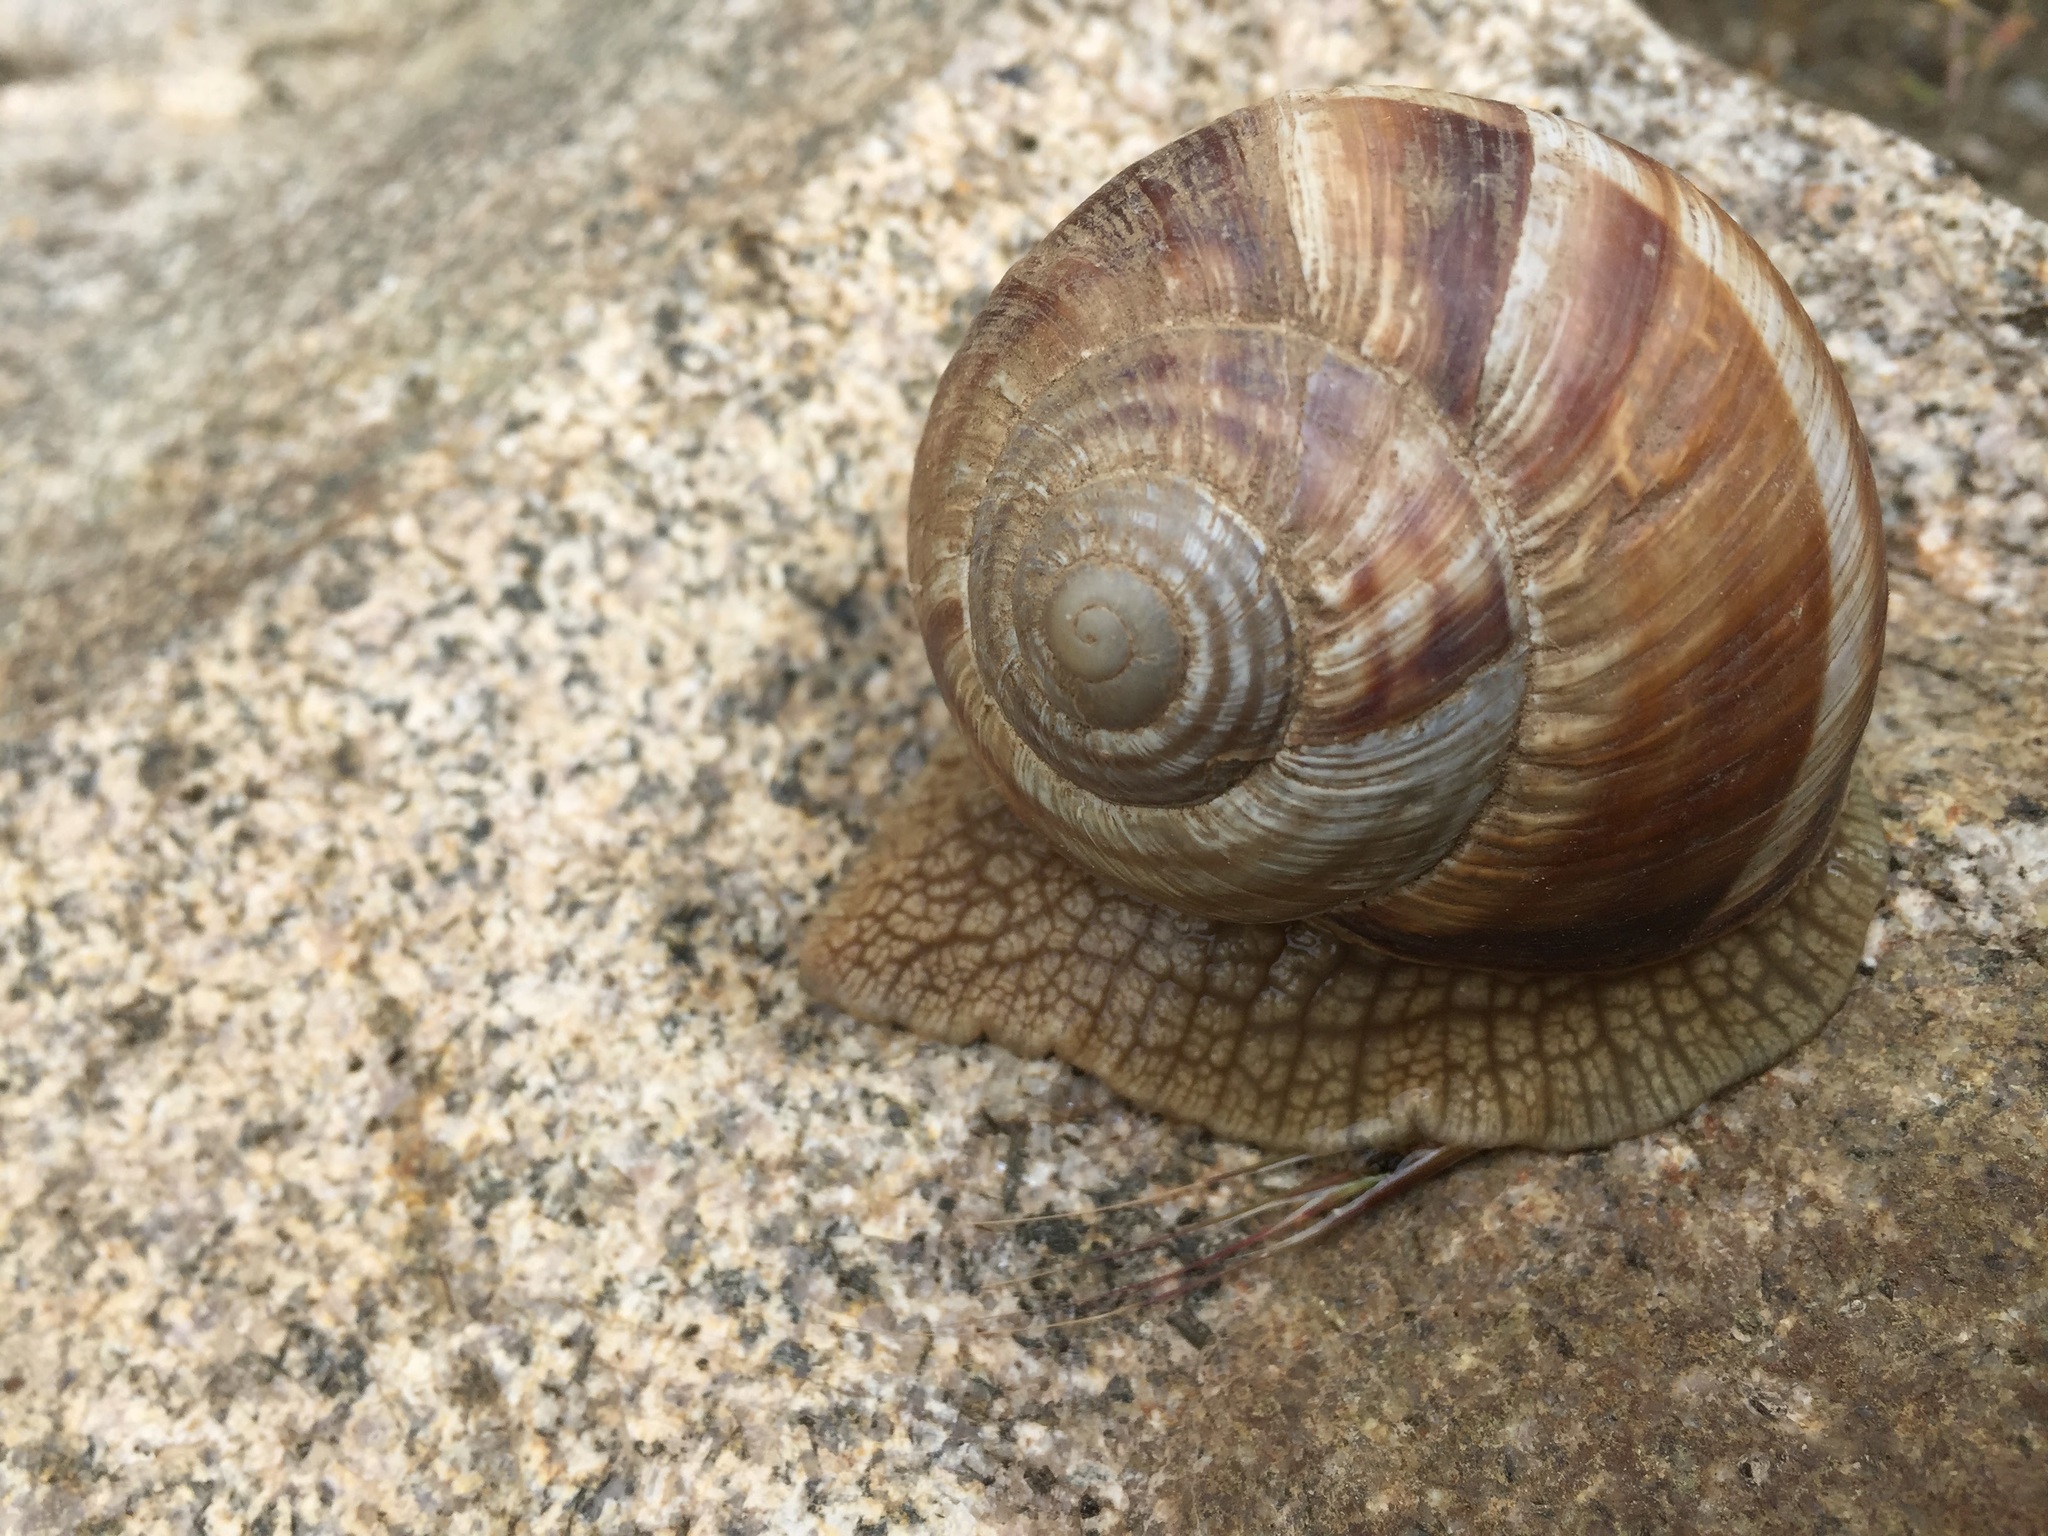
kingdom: Animalia
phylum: Mollusca
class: Gastropoda
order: Stylommatophora
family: Helicidae
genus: Helix
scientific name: Helix lucorum
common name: Turkish snail
